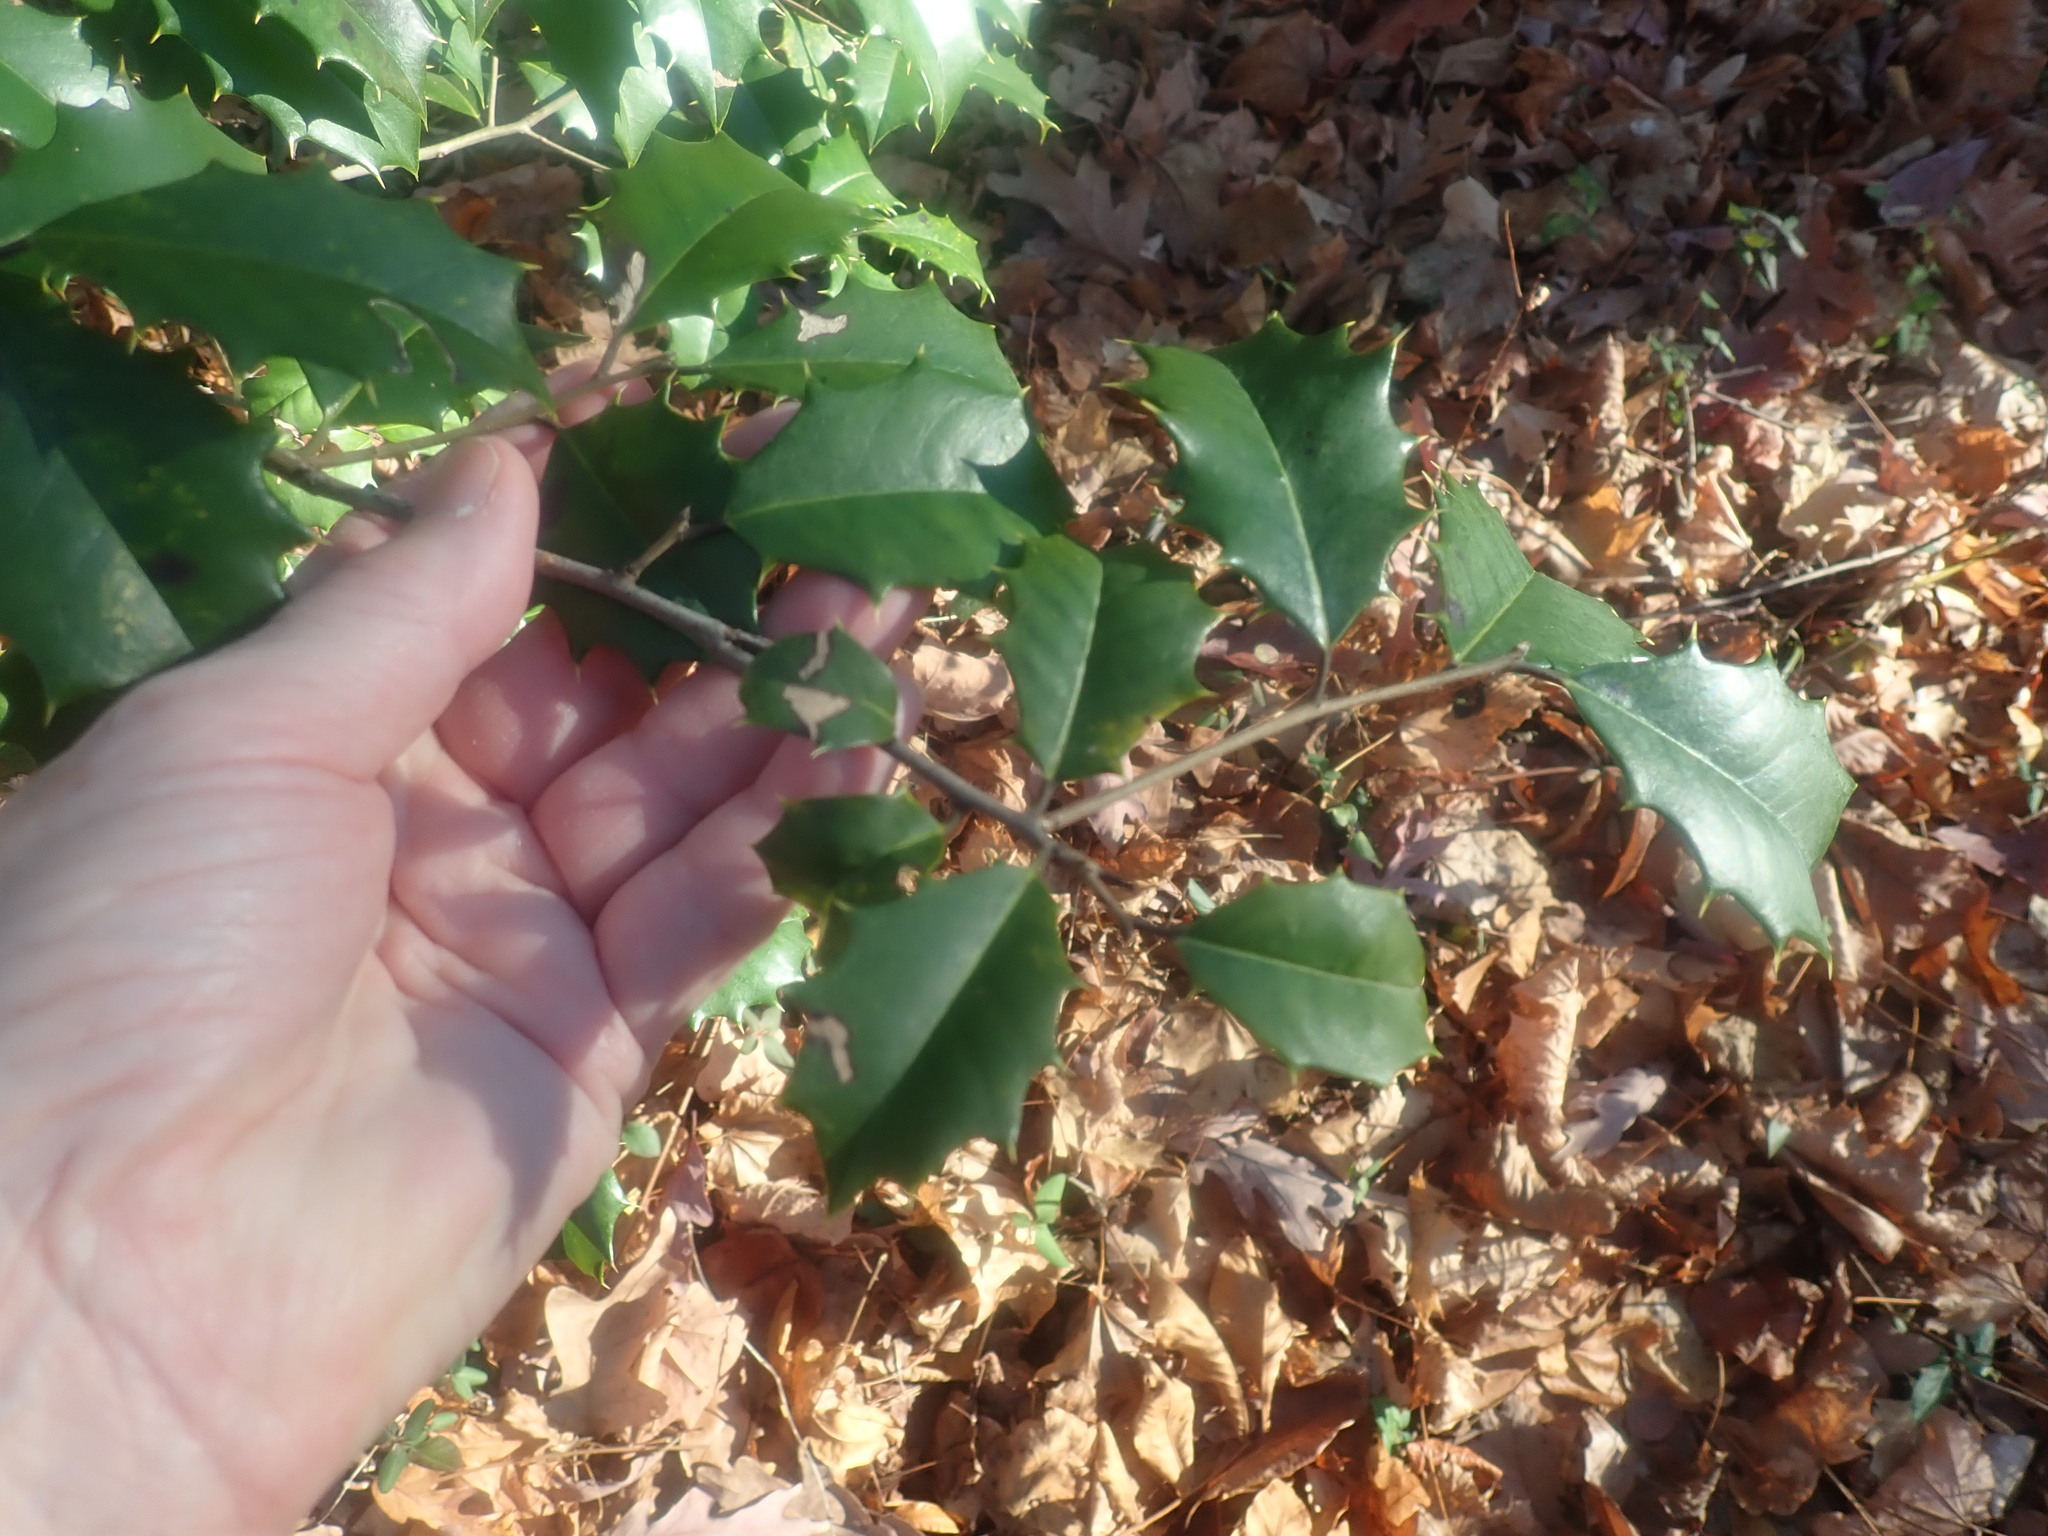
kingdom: Plantae
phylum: Tracheophyta
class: Magnoliopsida
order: Aquifoliales
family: Aquifoliaceae
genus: Ilex
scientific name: Ilex opaca
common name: American holly
